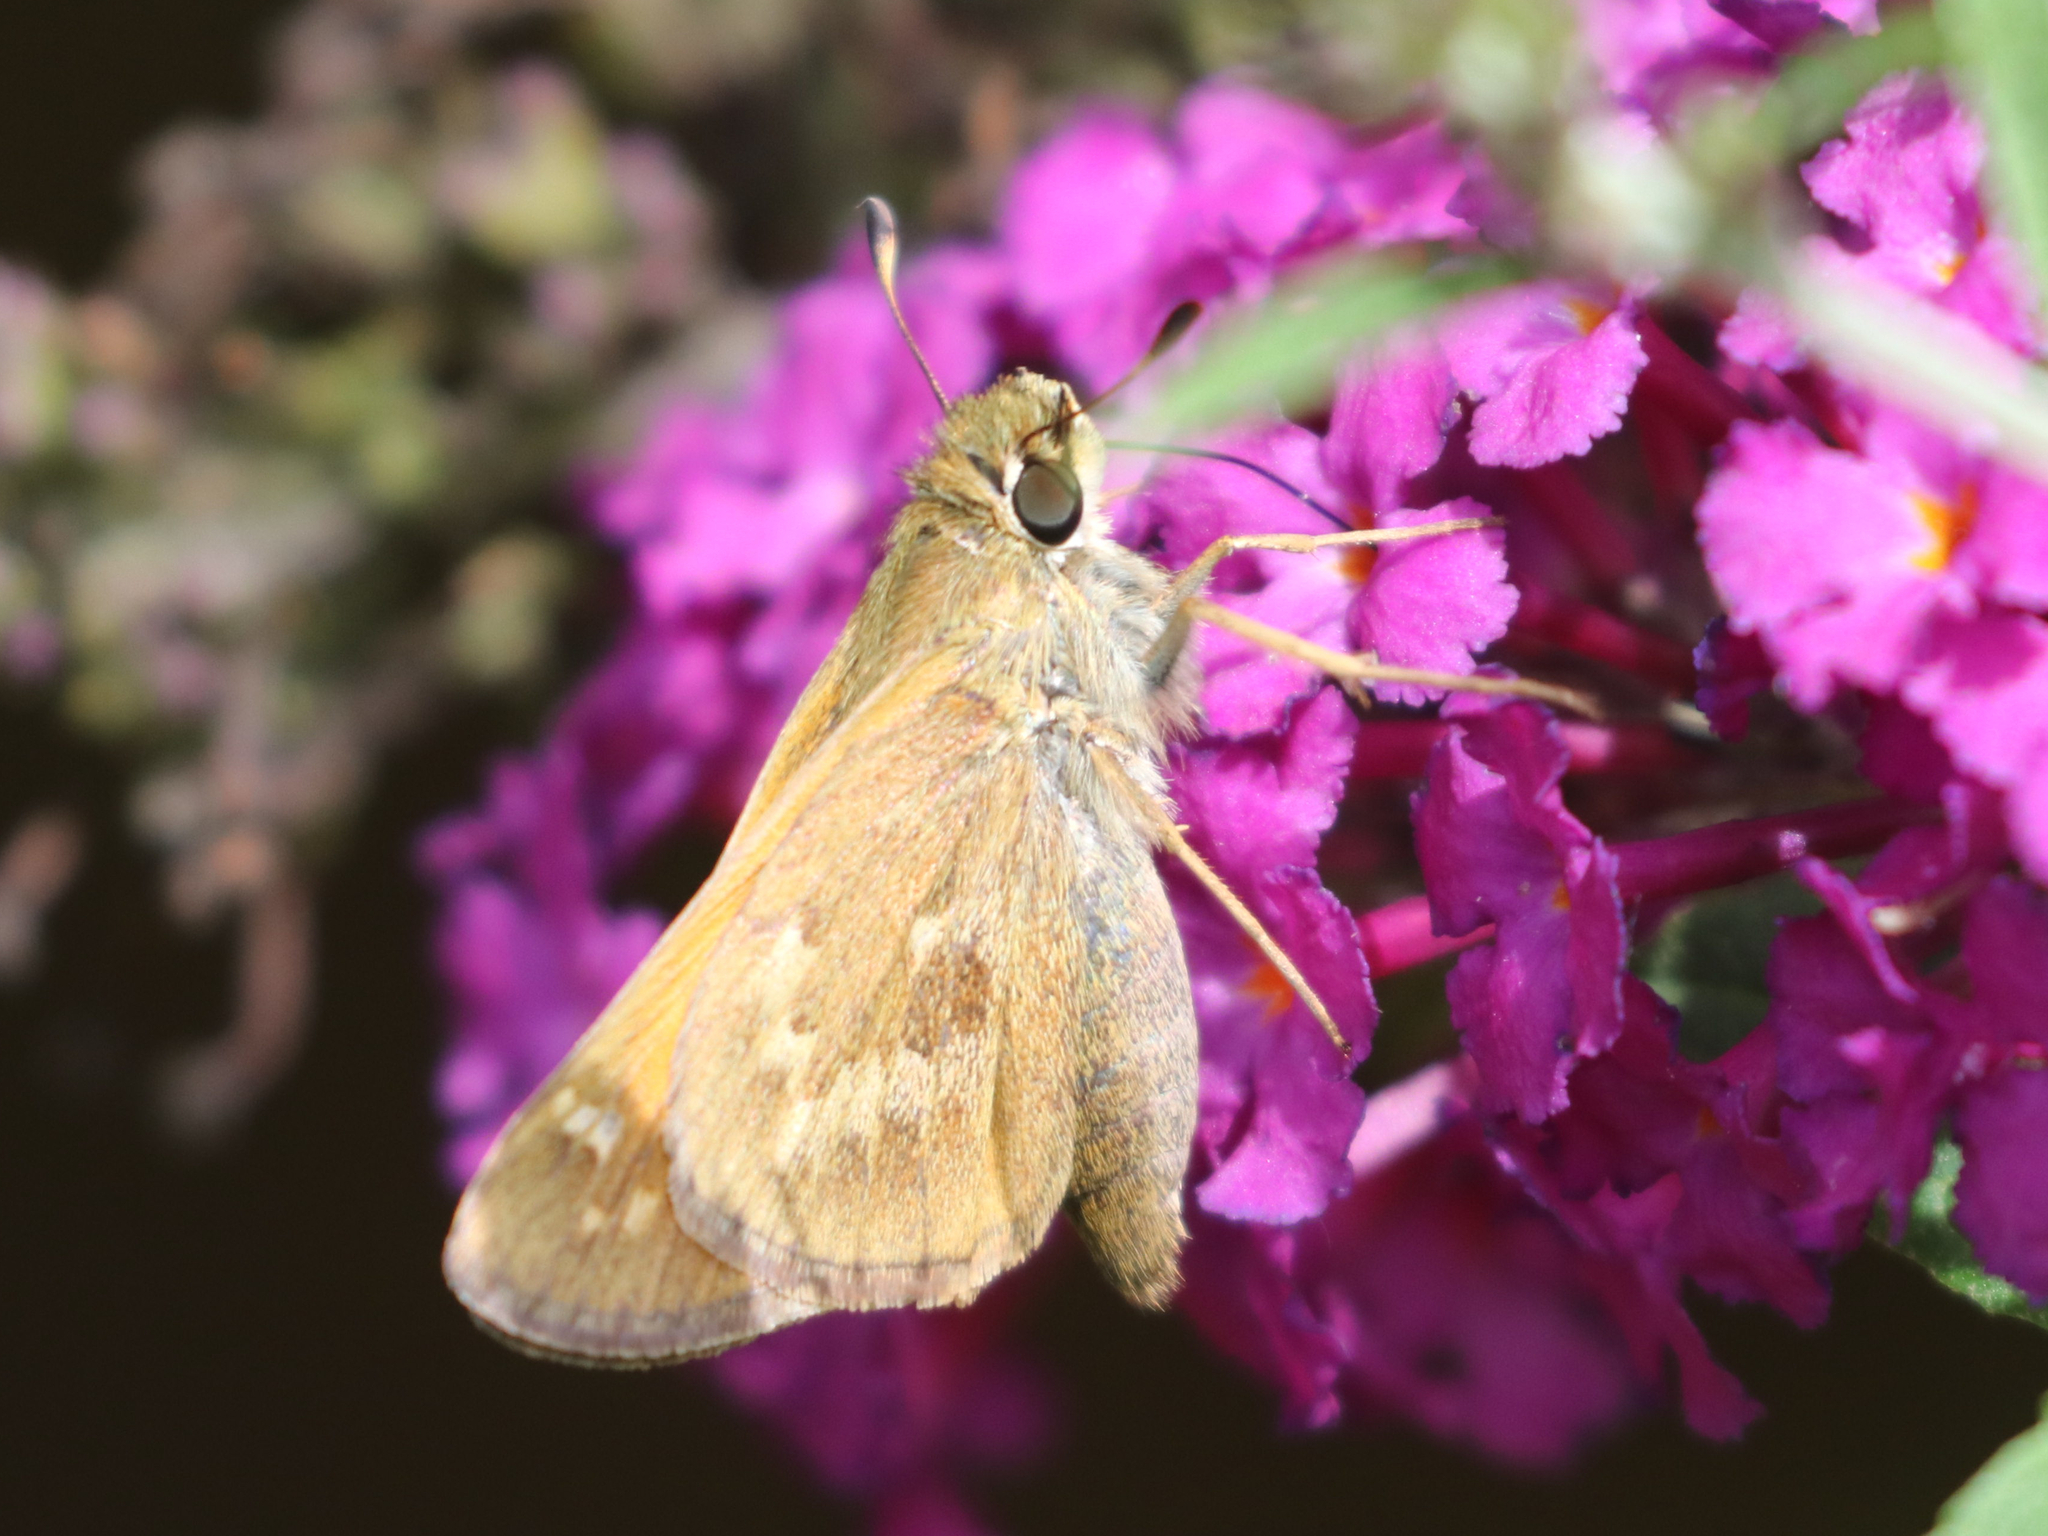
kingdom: Animalia
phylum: Arthropoda
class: Insecta
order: Lepidoptera
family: Hesperiidae
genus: Atalopedes
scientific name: Atalopedes
